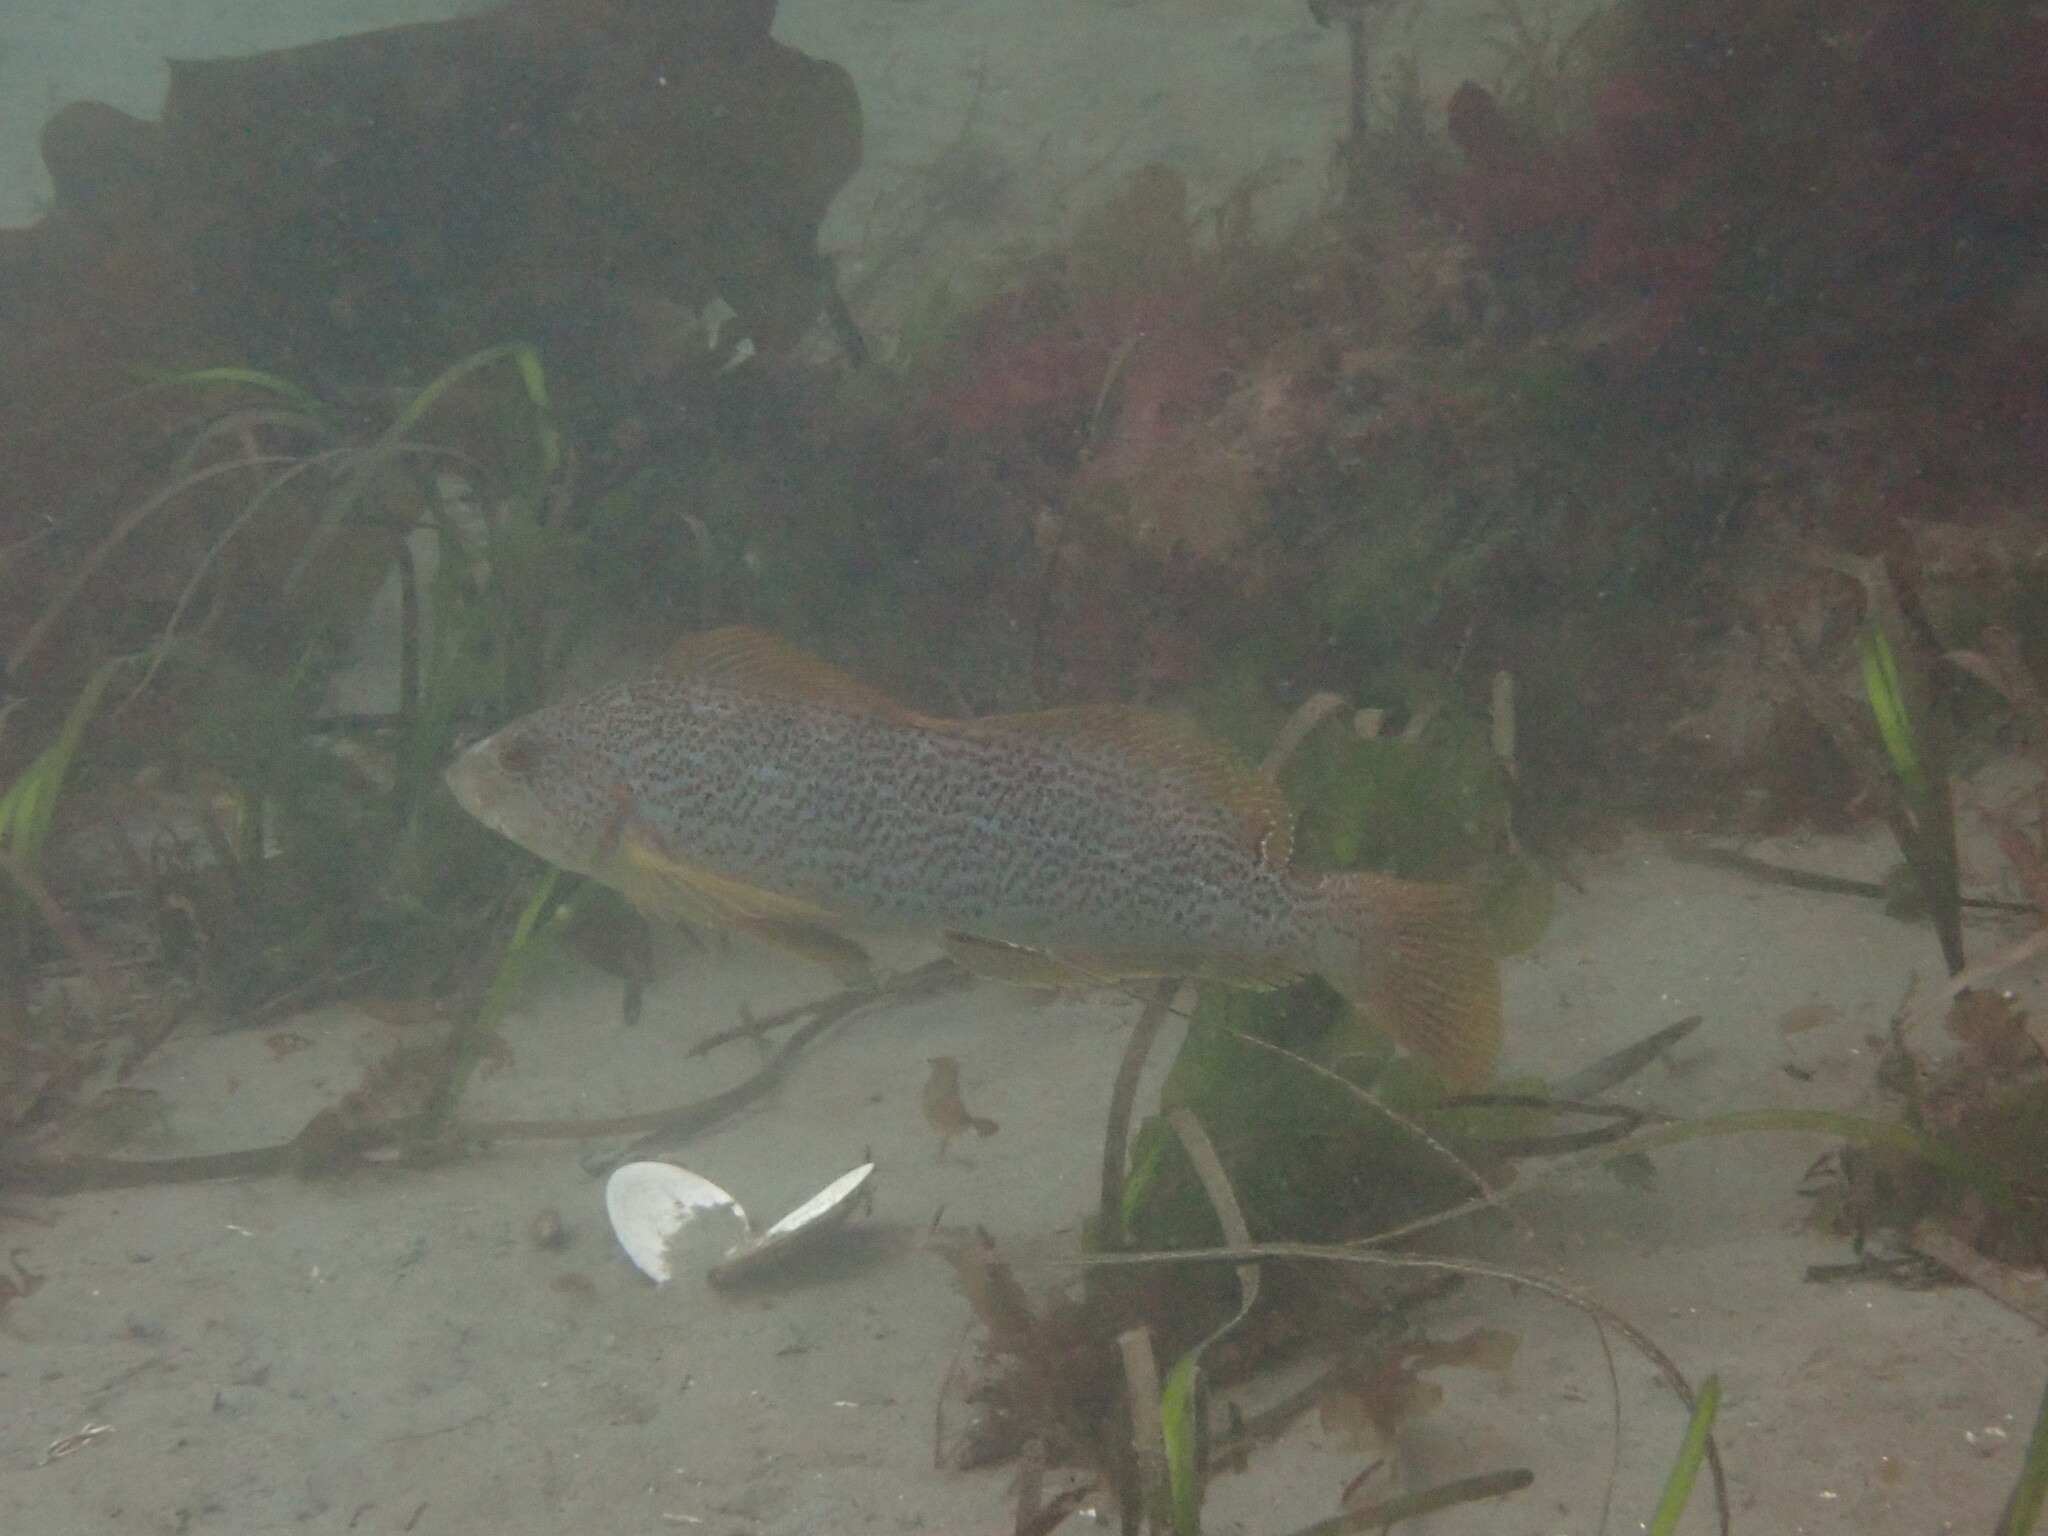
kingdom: Animalia
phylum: Chordata
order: Scorpaeniformes
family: Hexagrammidae
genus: Hexagrammos
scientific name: Hexagrammos decagrammus
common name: Kelp greenling
